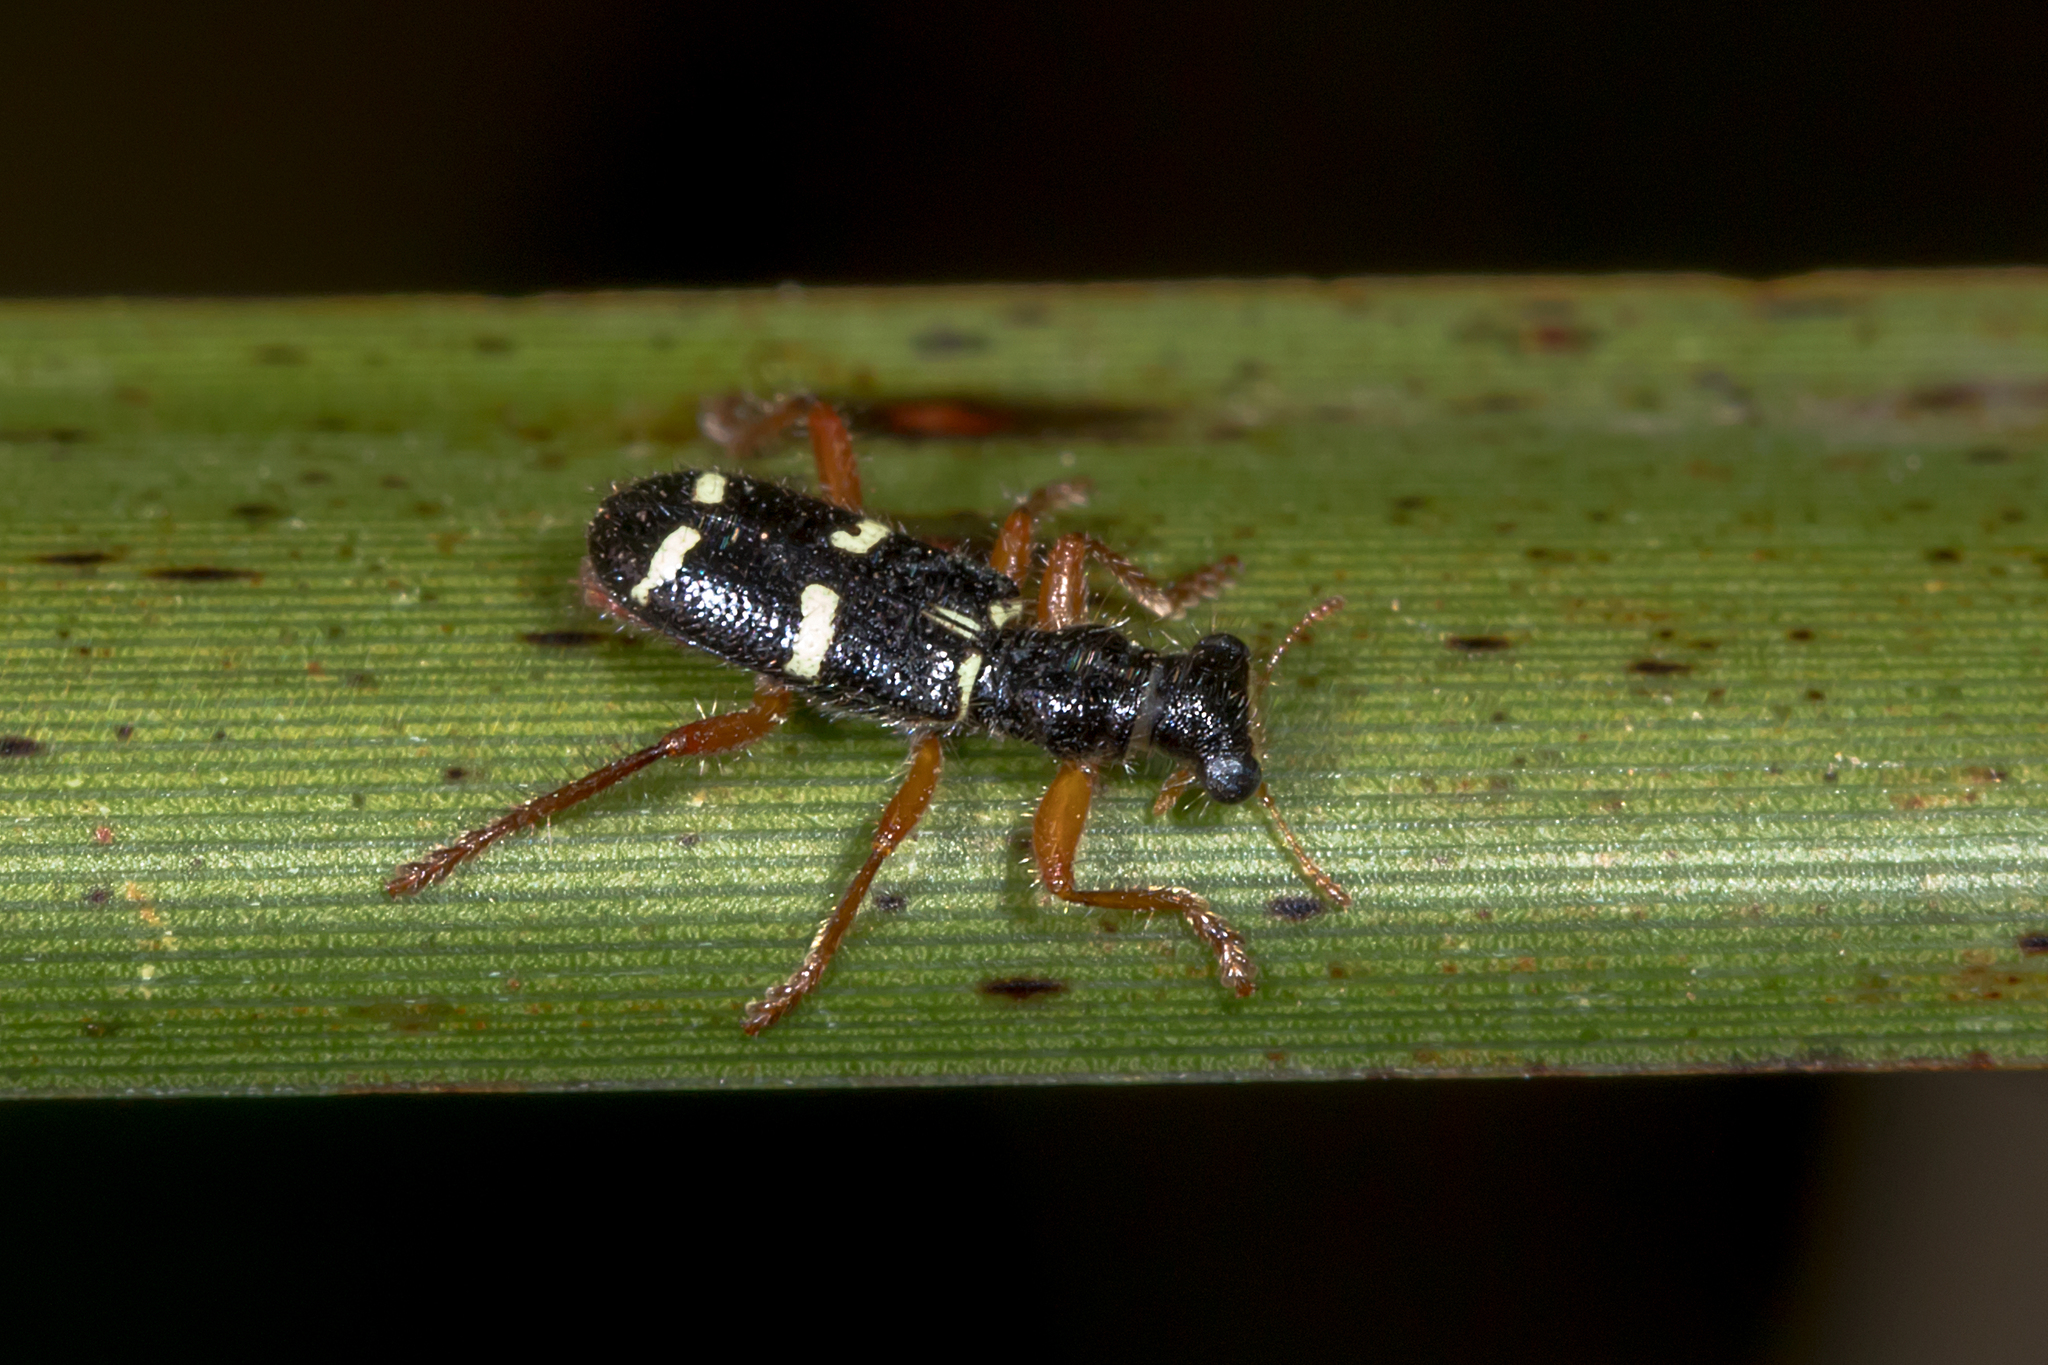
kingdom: Animalia
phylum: Arthropoda
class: Insecta
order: Coleoptera
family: Cleridae
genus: Lemidia
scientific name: Lemidia nitens
